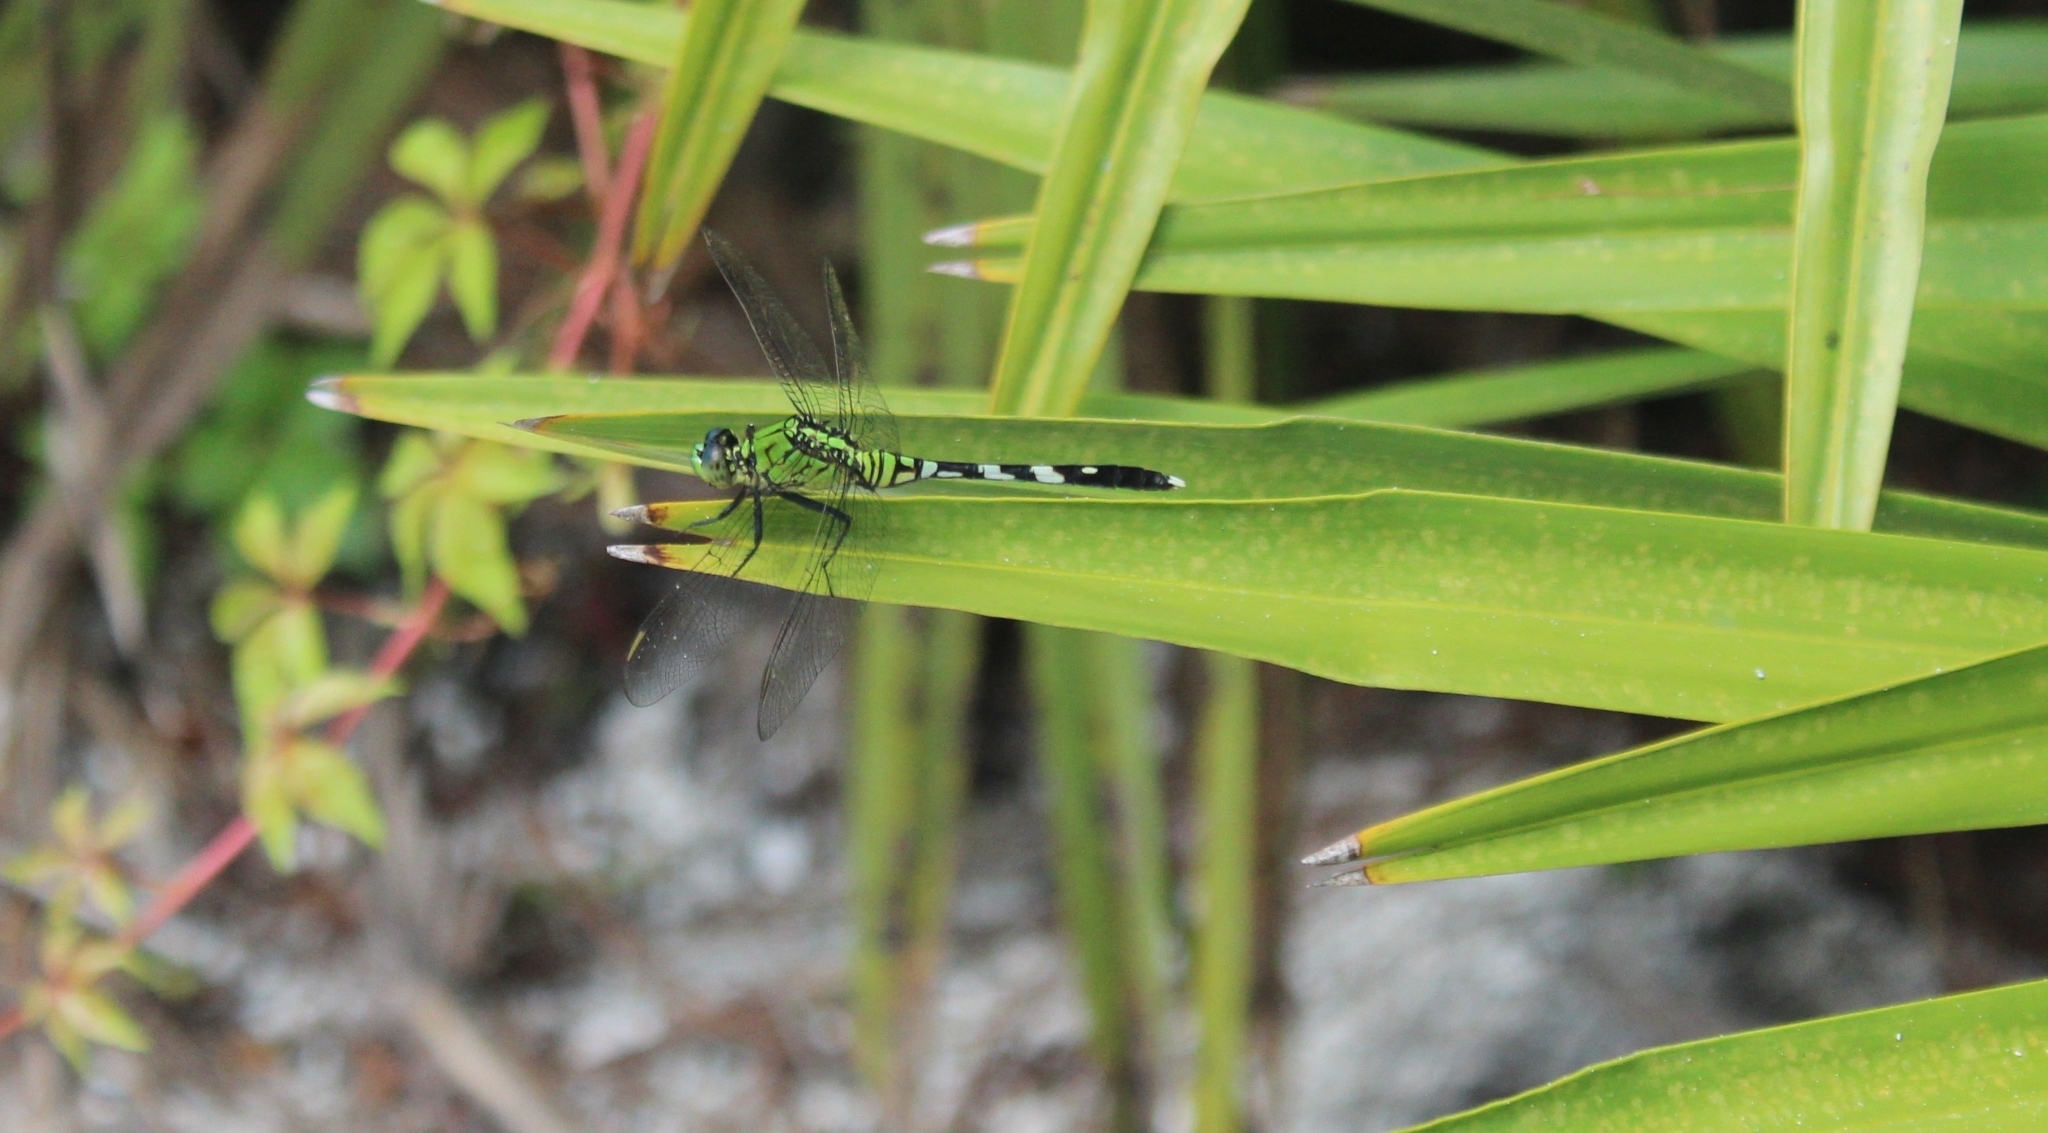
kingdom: Animalia
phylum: Arthropoda
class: Insecta
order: Odonata
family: Libellulidae
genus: Erythemis
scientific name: Erythemis simplicicollis
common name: Eastern pondhawk
